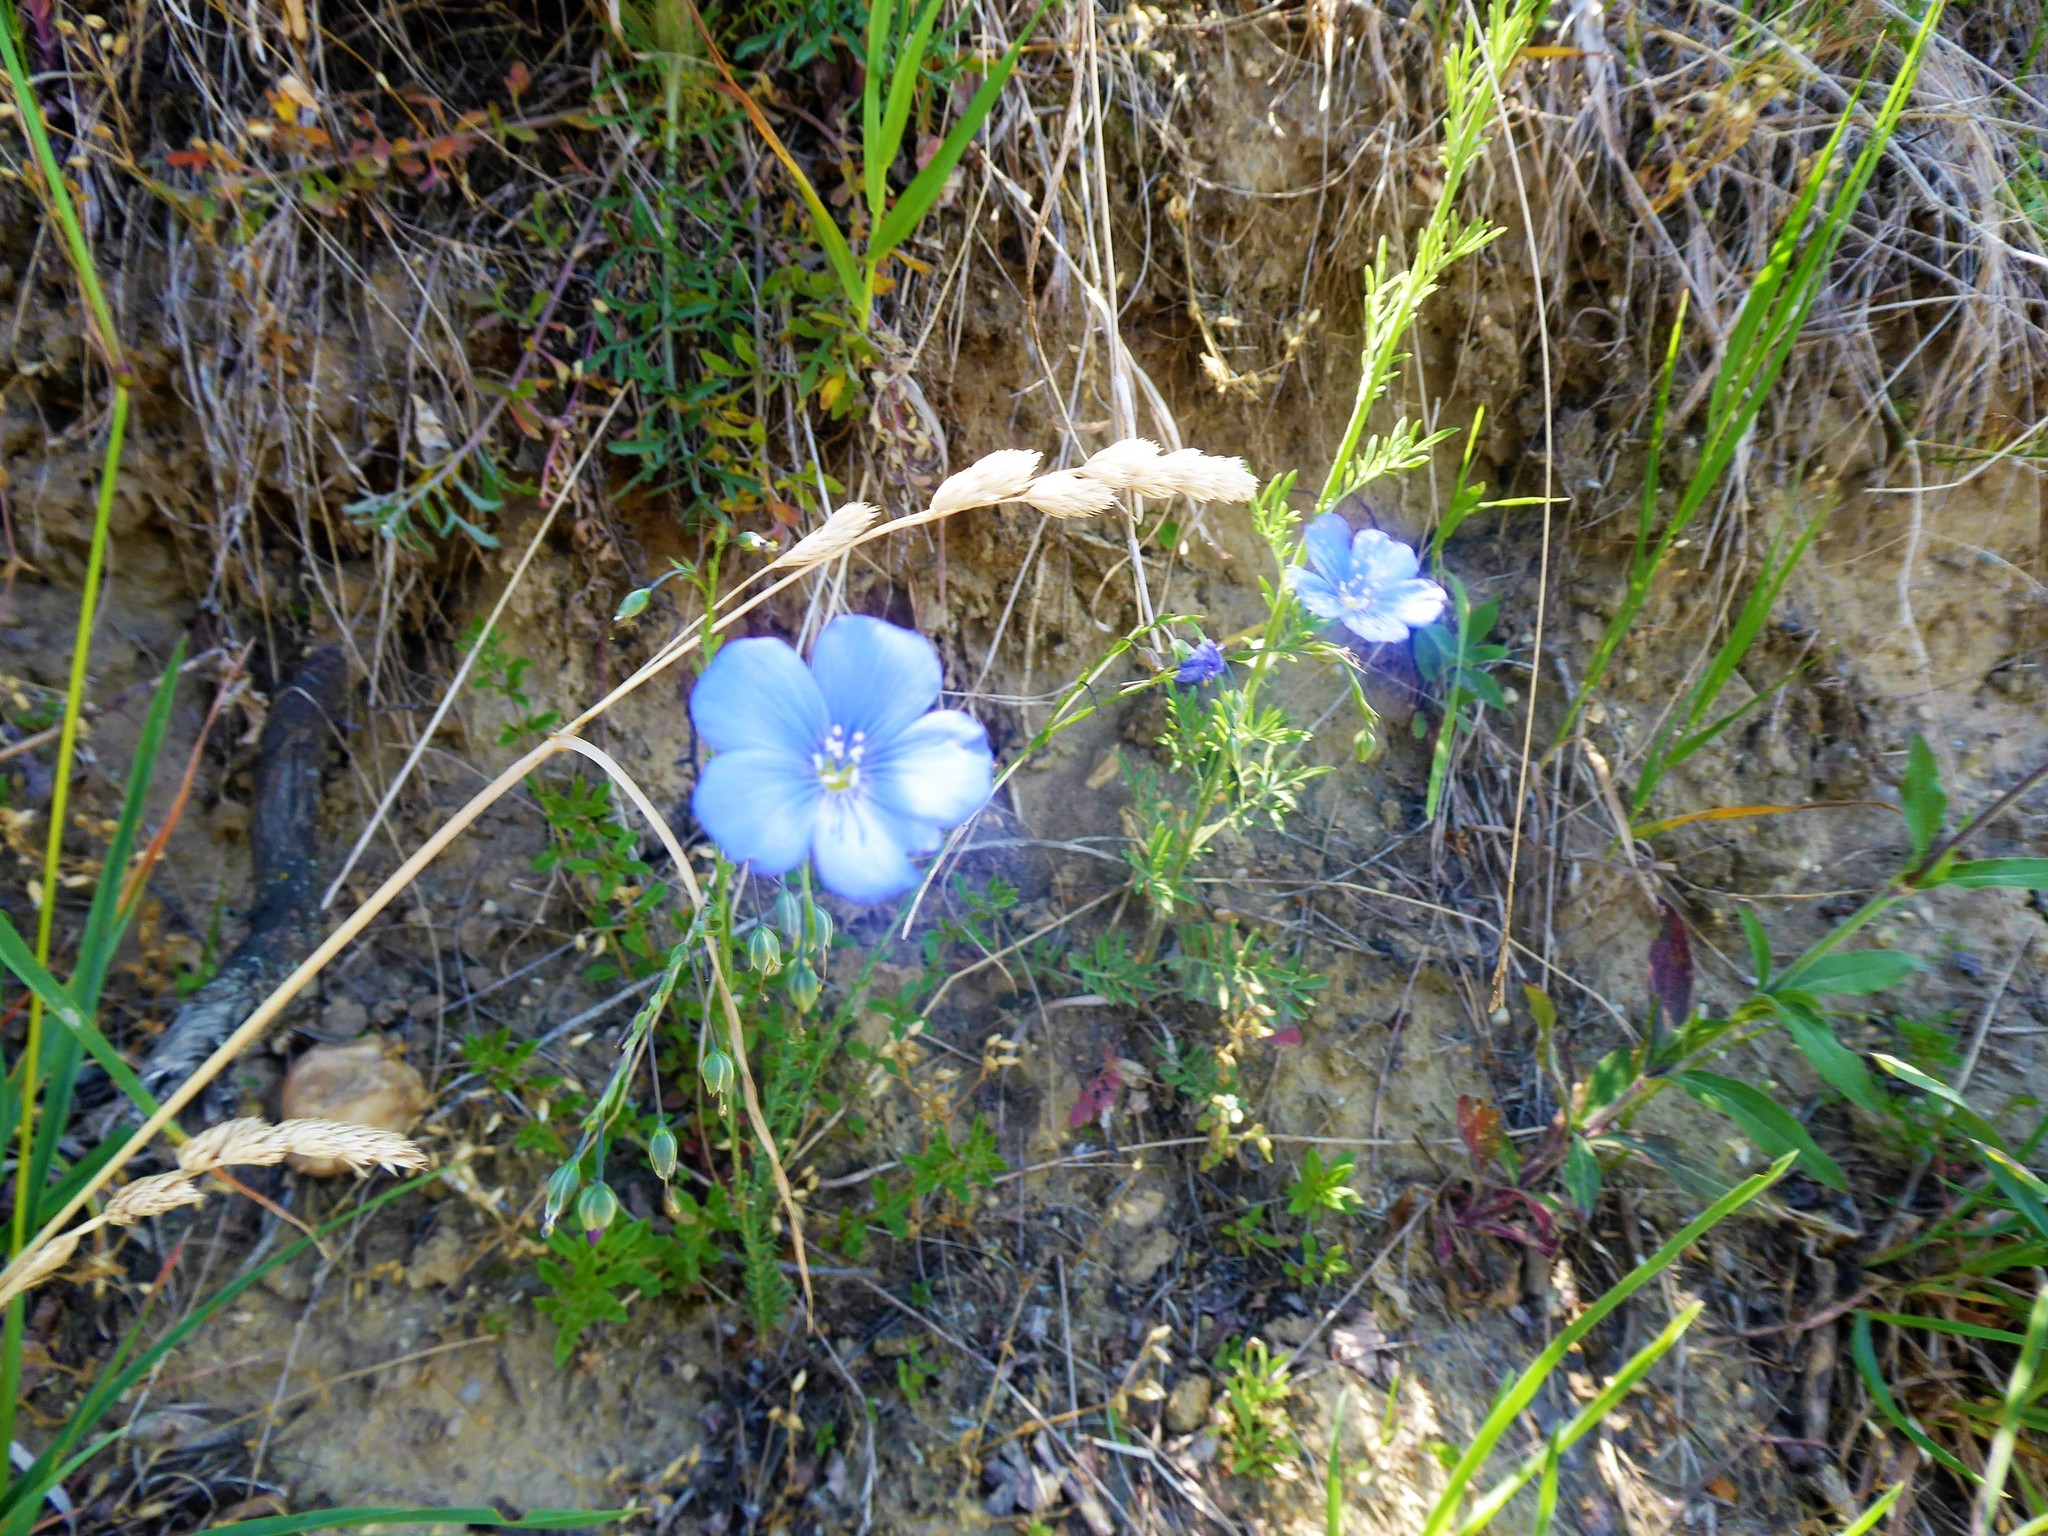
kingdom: Plantae
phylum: Tracheophyta
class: Magnoliopsida
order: Malpighiales
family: Linaceae
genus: Linum
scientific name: Linum austriacum
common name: Austrian flax
